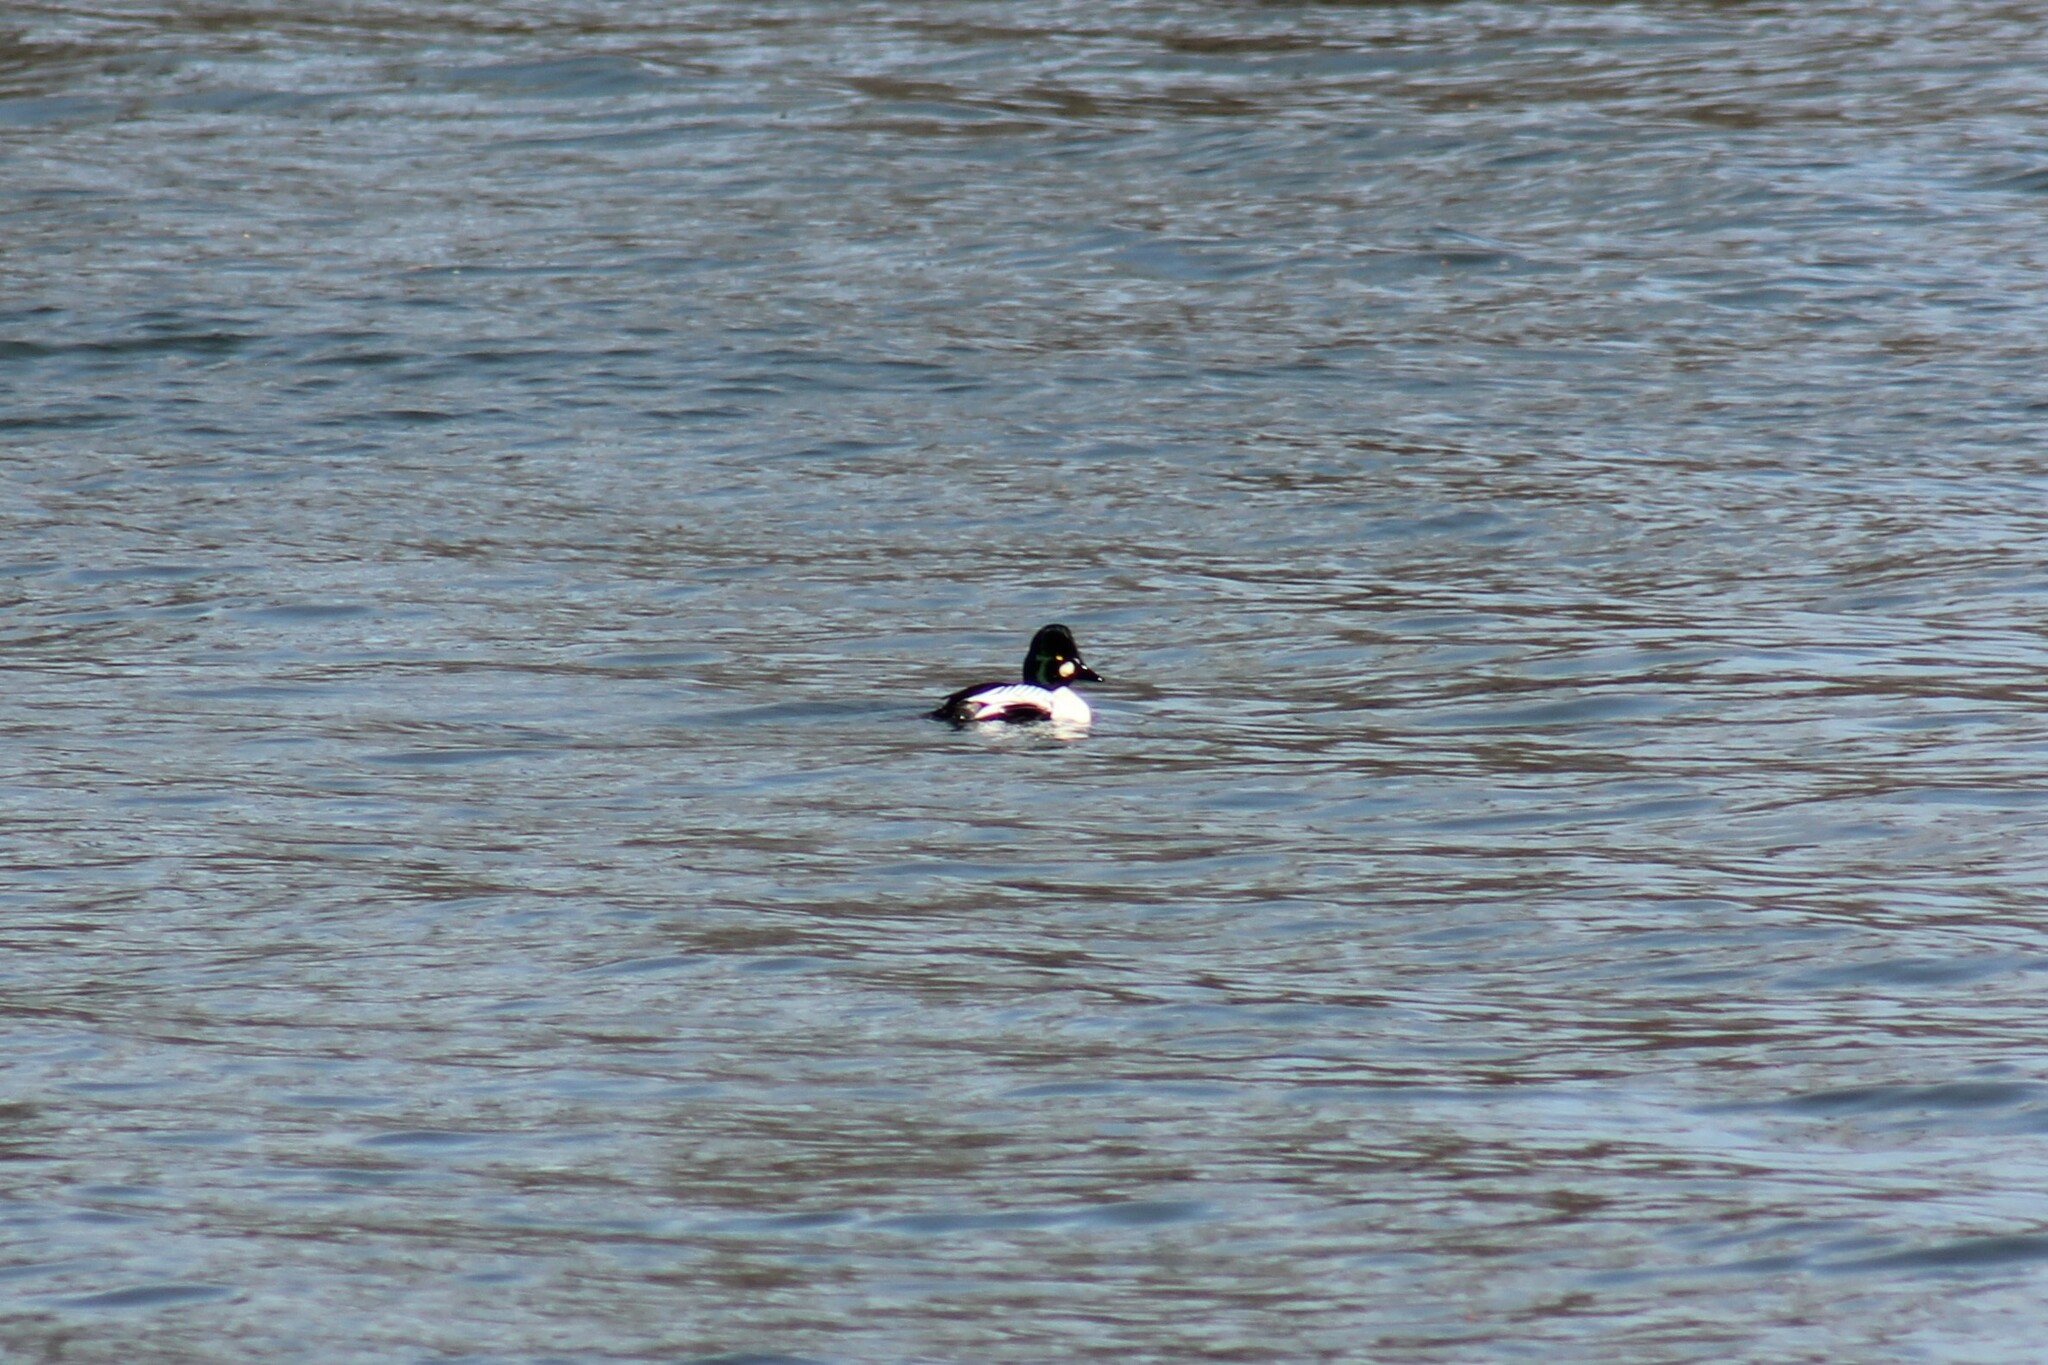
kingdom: Animalia
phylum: Chordata
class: Aves
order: Anseriformes
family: Anatidae
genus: Bucephala
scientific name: Bucephala clangula
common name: Common goldeneye
